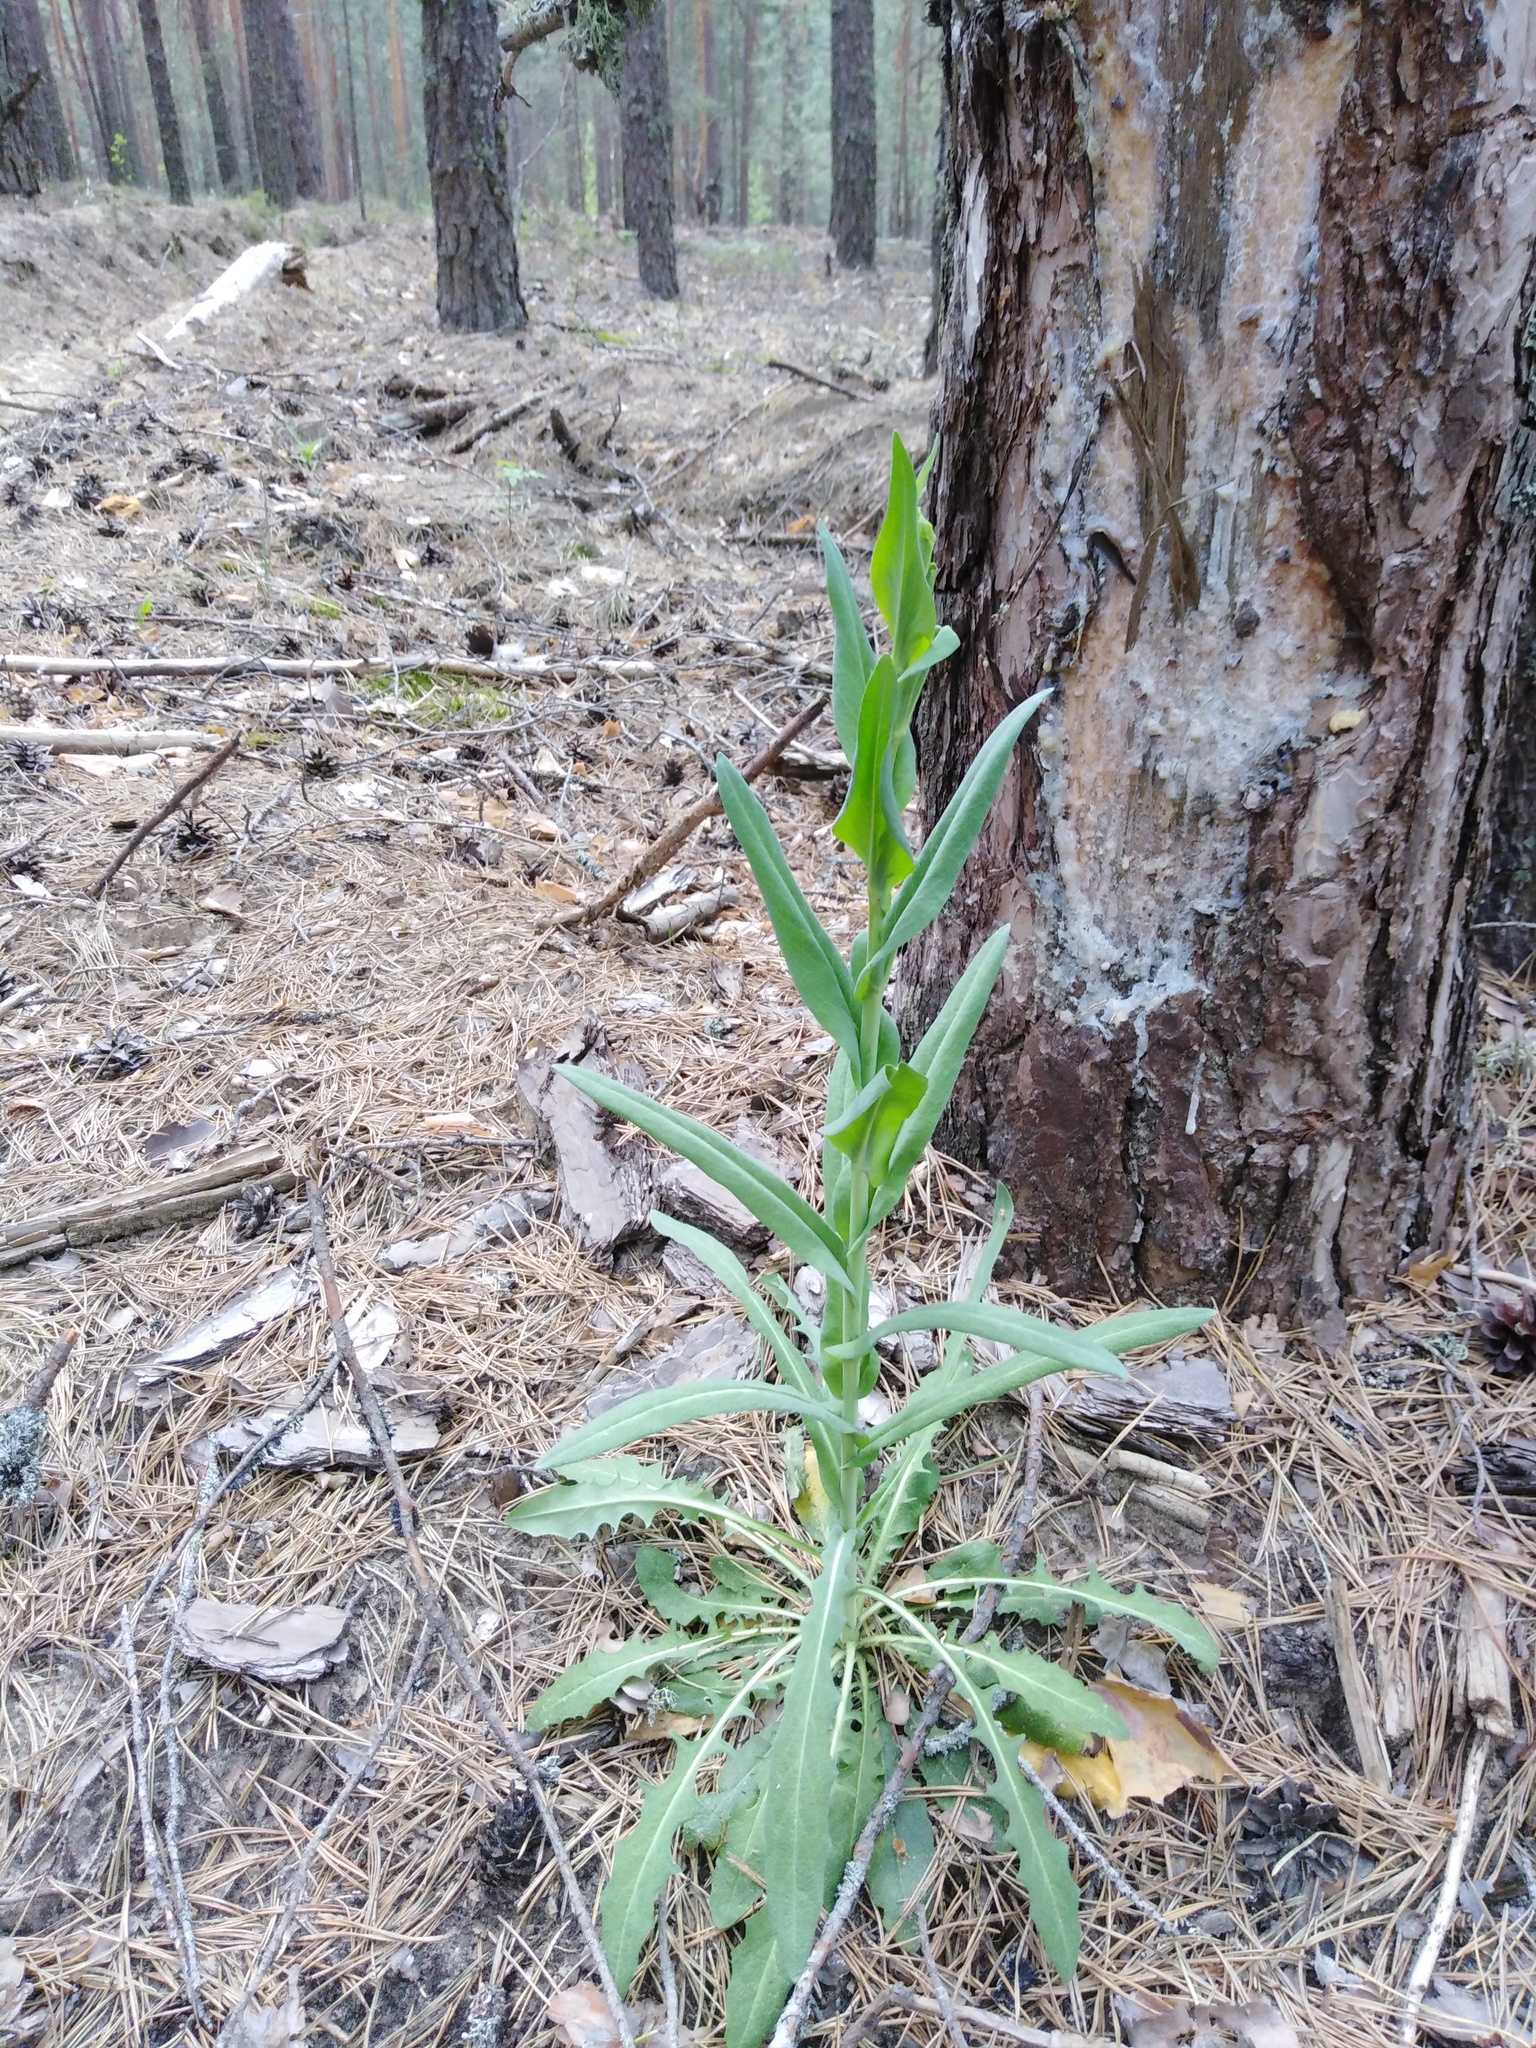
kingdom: Plantae
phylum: Tracheophyta
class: Magnoliopsida
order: Brassicales
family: Brassicaceae
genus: Turritis
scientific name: Turritis glabra
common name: Tower rockcress
